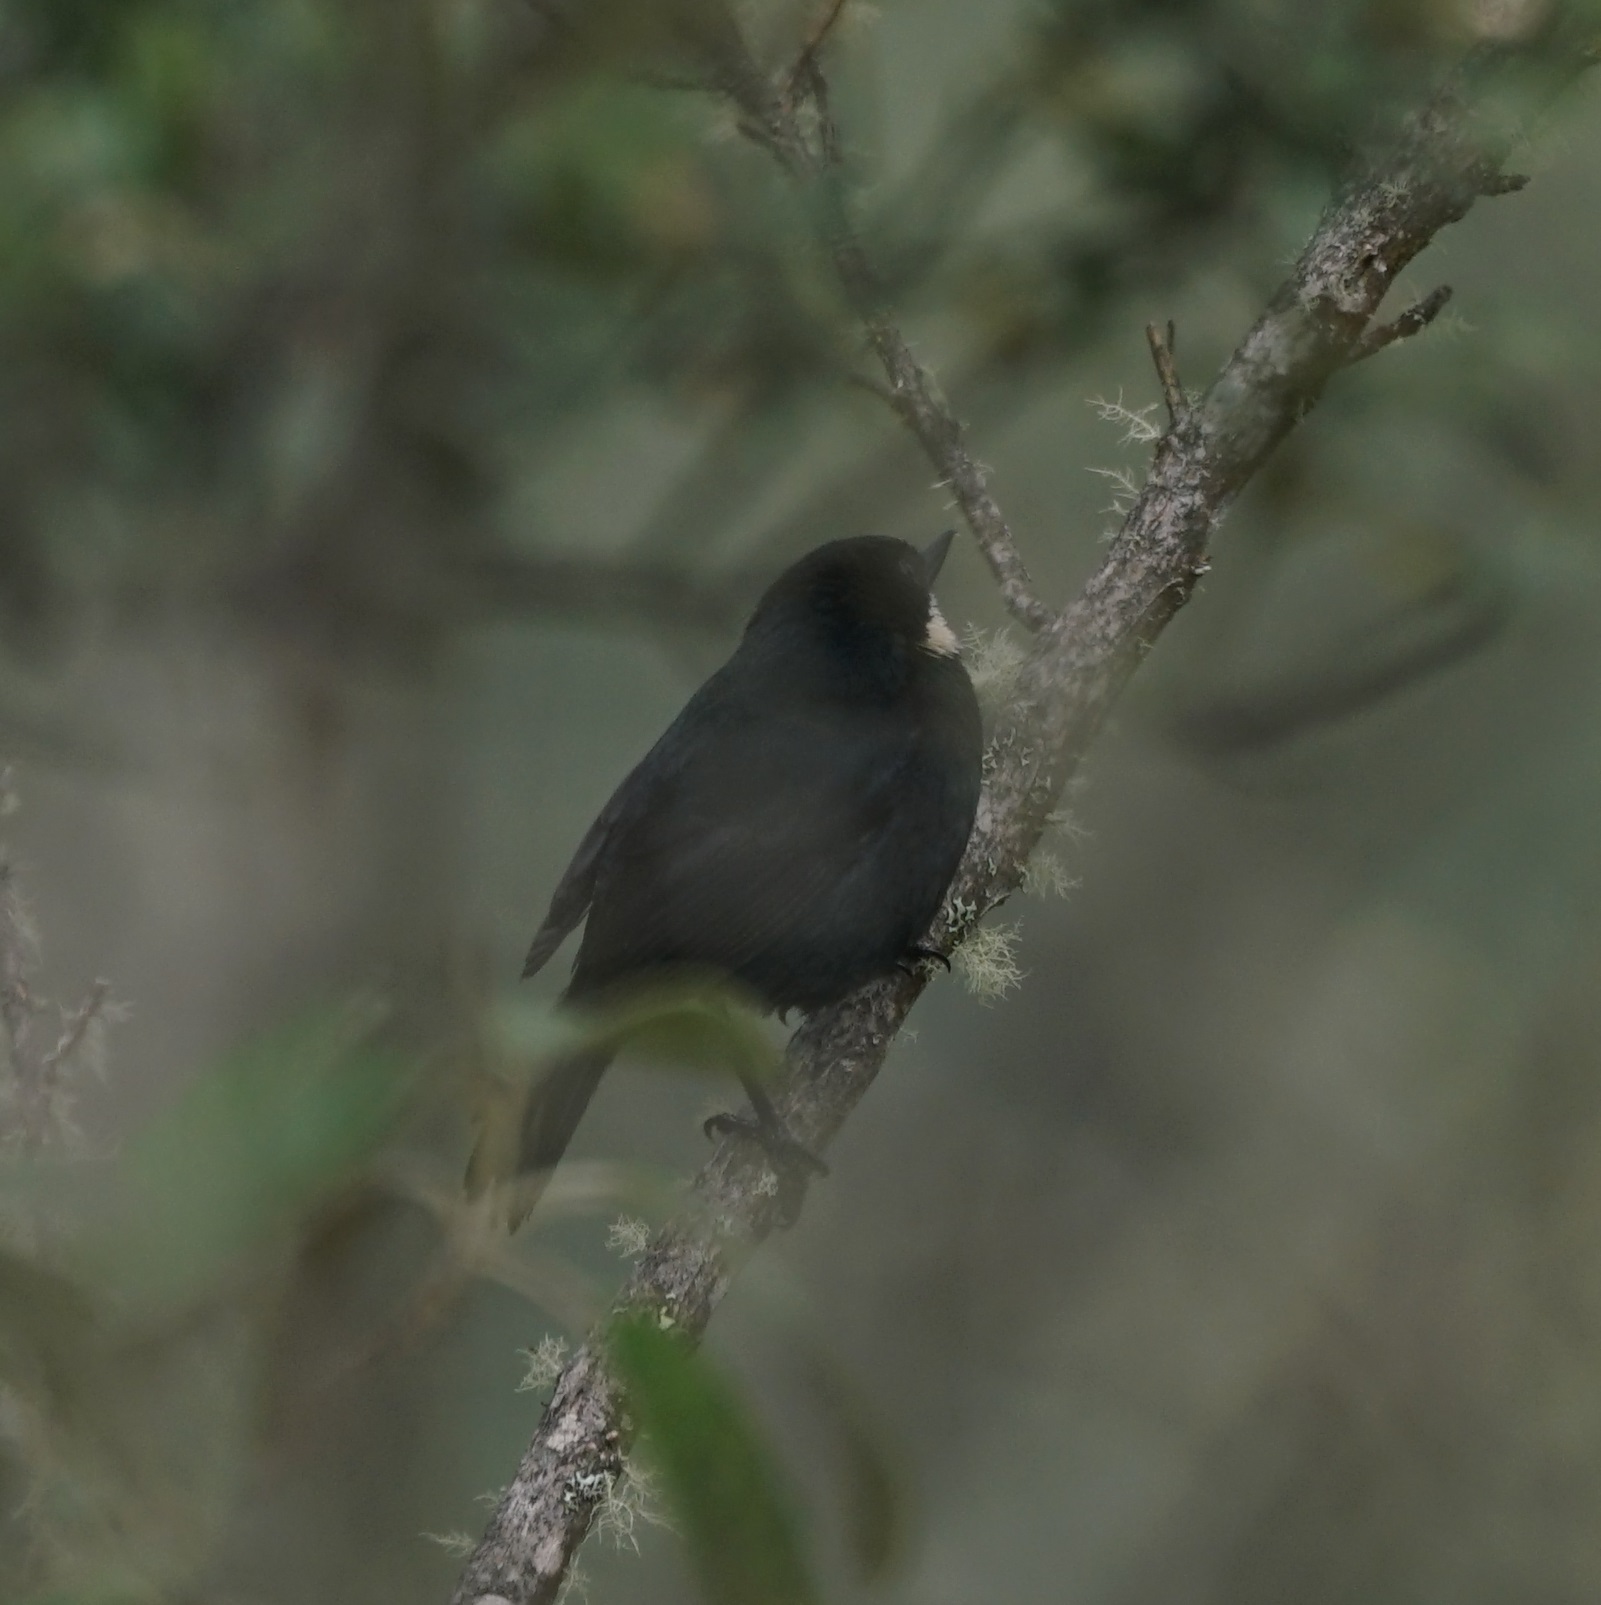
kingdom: Animalia
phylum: Chordata
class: Aves
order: Passeriformes
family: Thraupidae
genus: Diglossa
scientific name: Diglossa mystacalis
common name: Moustached flowerpiercer
